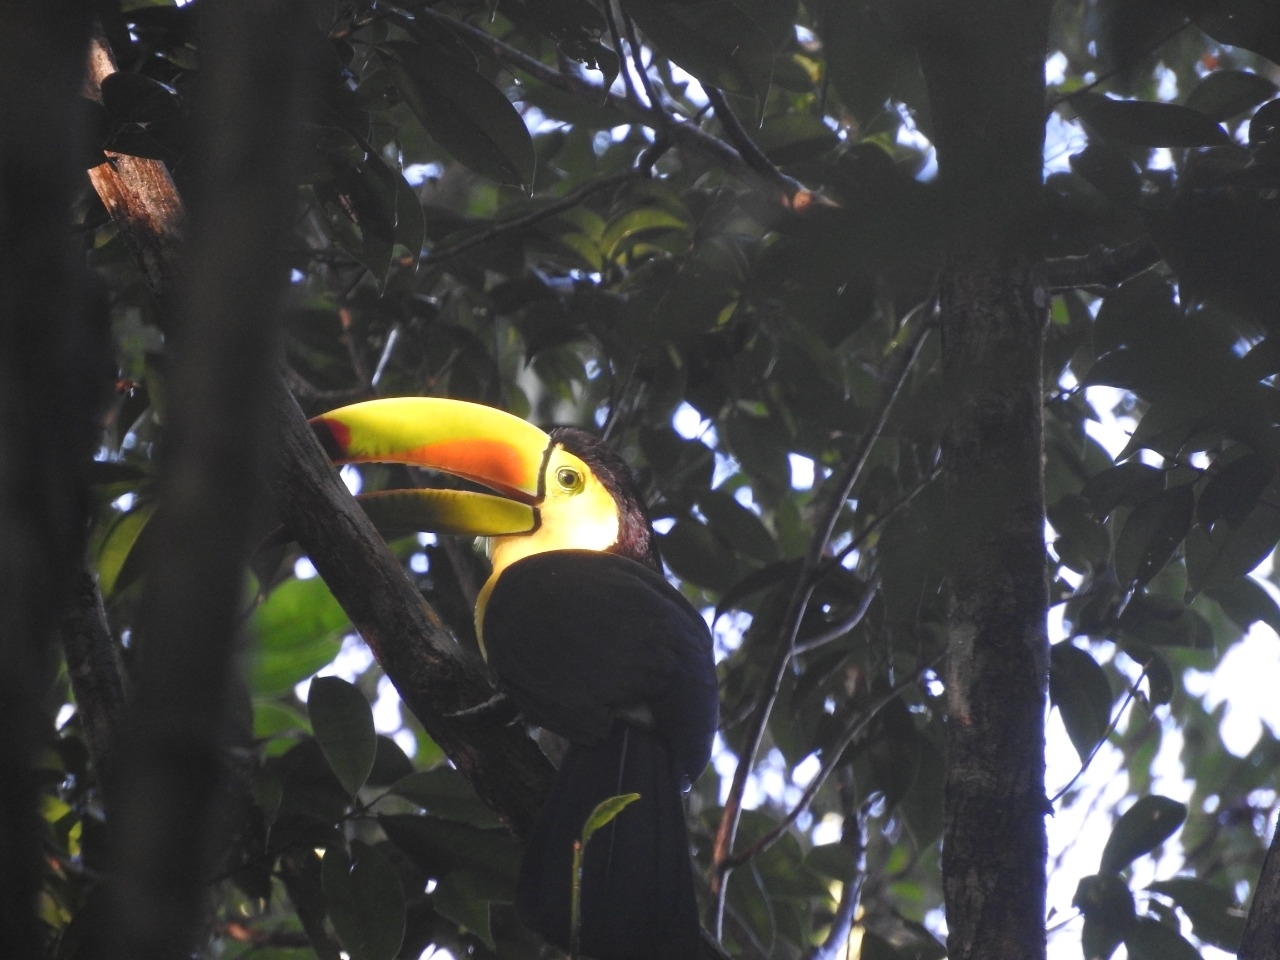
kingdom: Animalia
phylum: Chordata
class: Aves
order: Piciformes
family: Ramphastidae
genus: Ramphastos
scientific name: Ramphastos sulfuratus
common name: Keel-billed toucan
